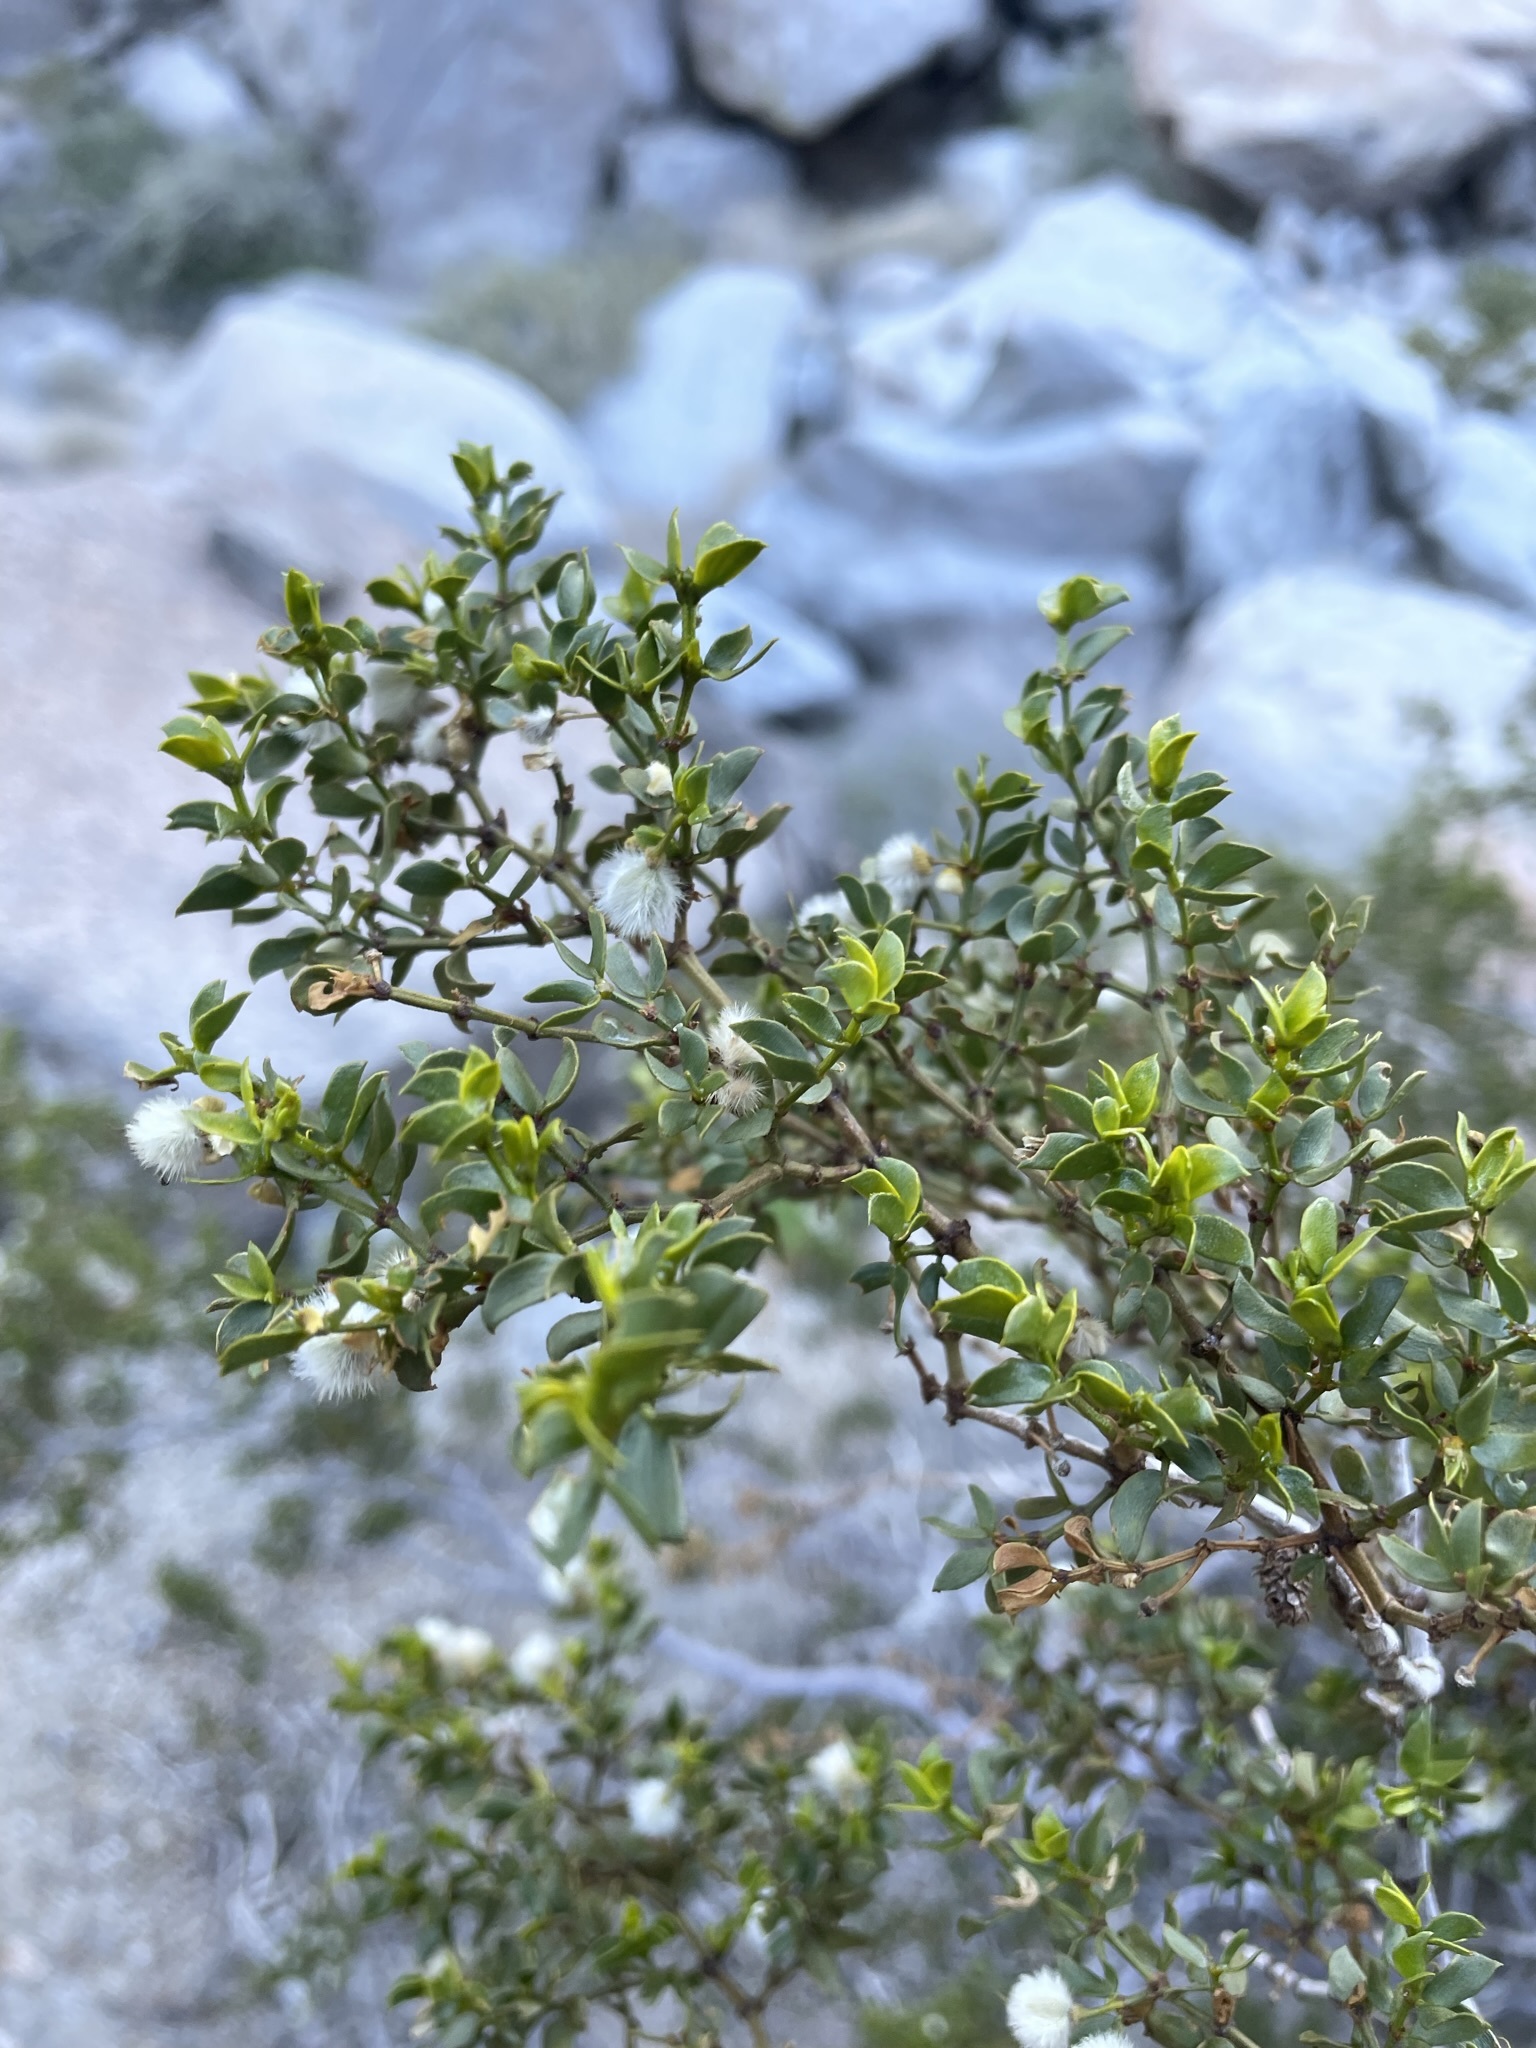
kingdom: Plantae
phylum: Tracheophyta
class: Magnoliopsida
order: Zygophyllales
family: Zygophyllaceae
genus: Larrea
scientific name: Larrea tridentata
